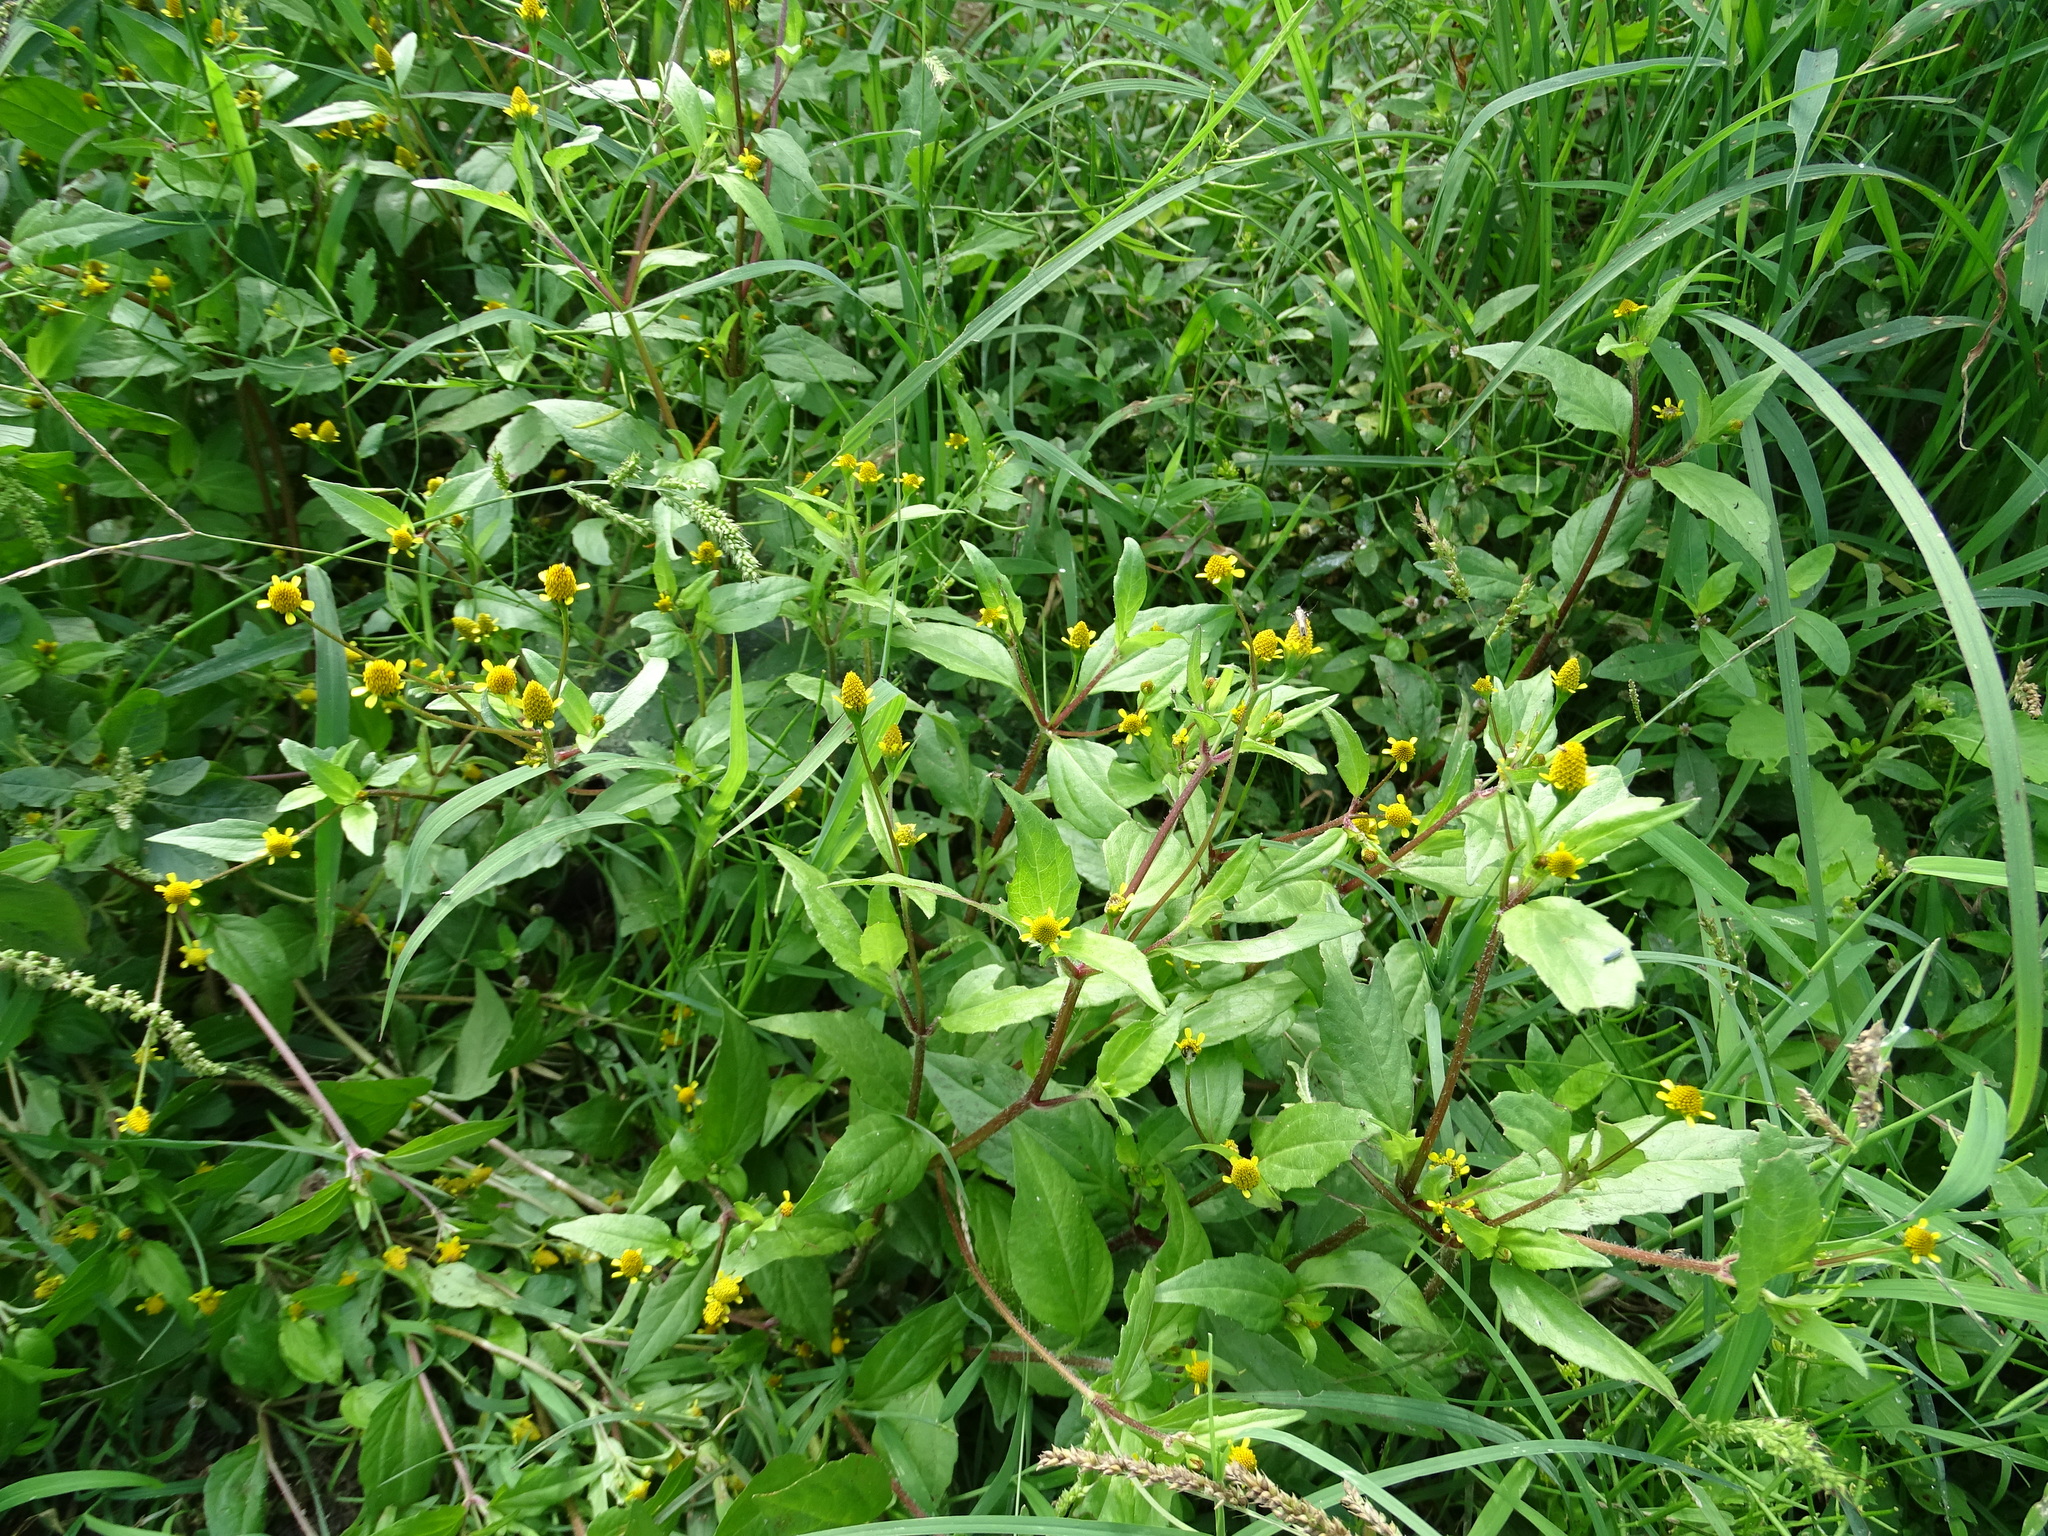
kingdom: Plantae
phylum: Tracheophyta
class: Magnoliopsida
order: Asterales
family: Asteraceae
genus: Acmella
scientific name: Acmella uliginosa
